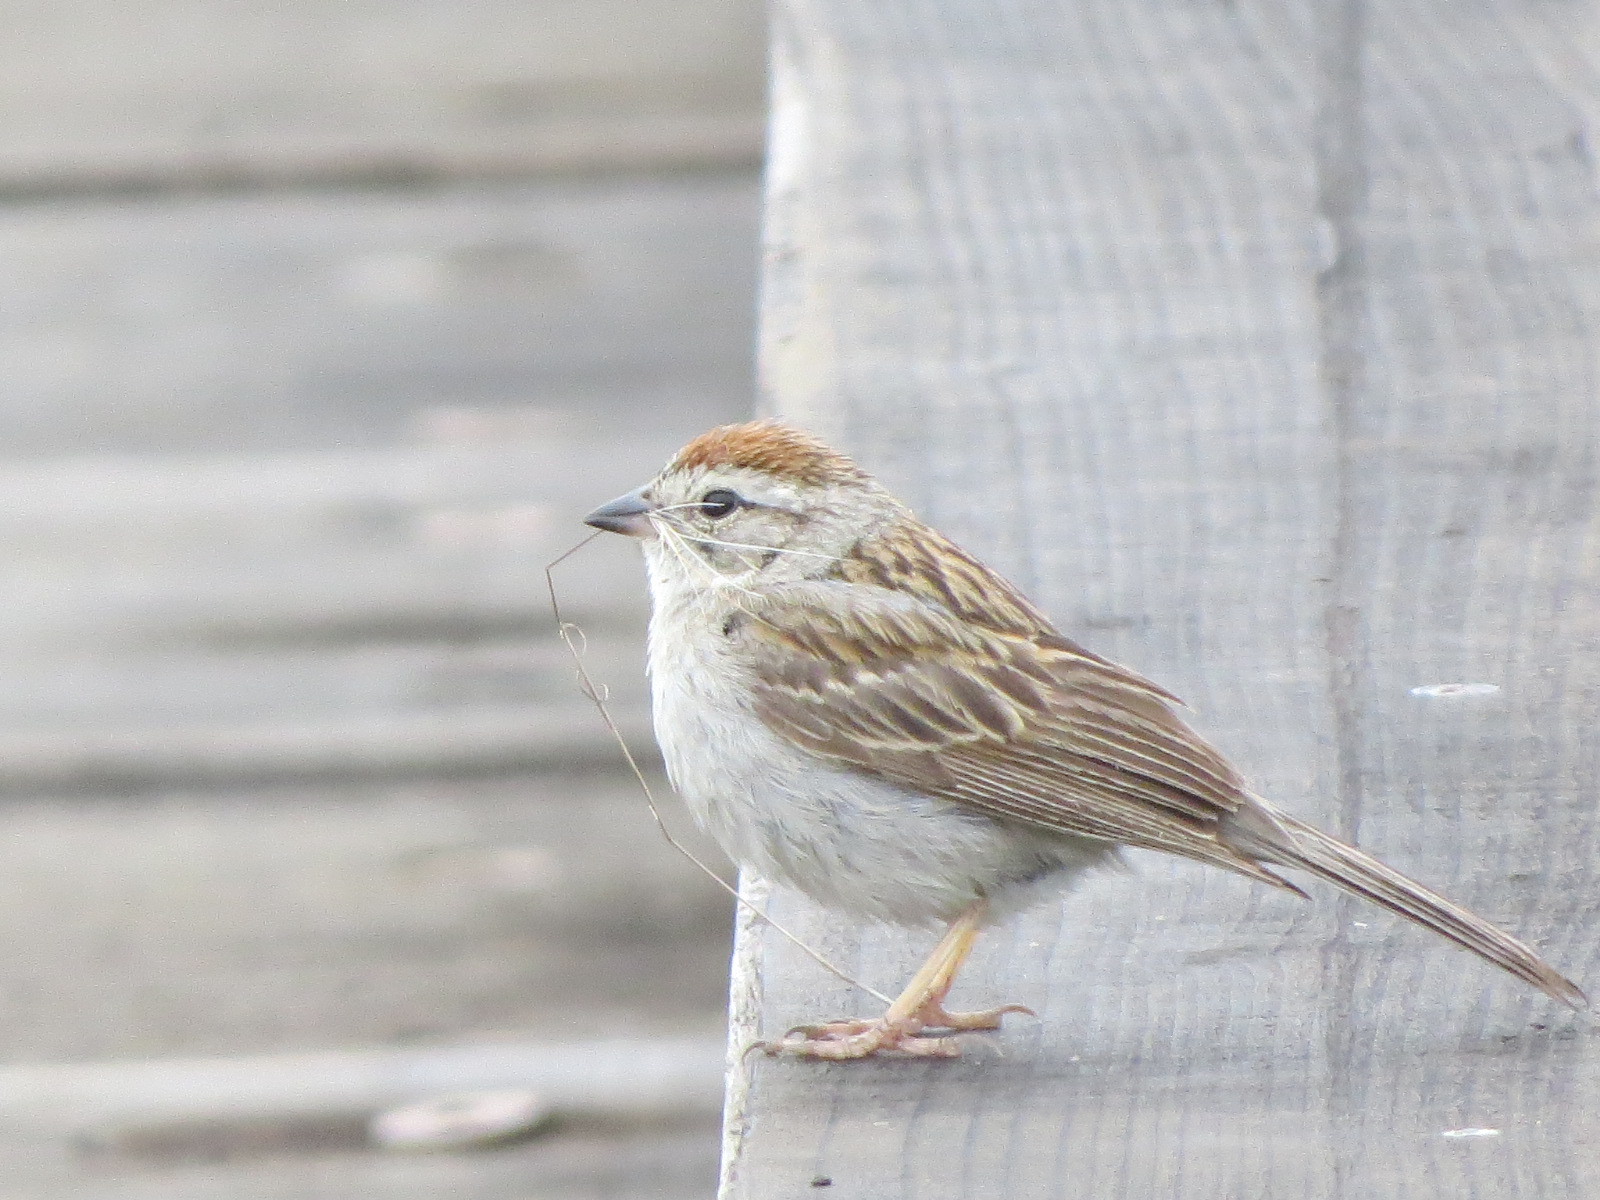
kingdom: Animalia
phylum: Chordata
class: Aves
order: Passeriformes
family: Passerellidae
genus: Spizella
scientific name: Spizella passerina
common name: Chipping sparrow
